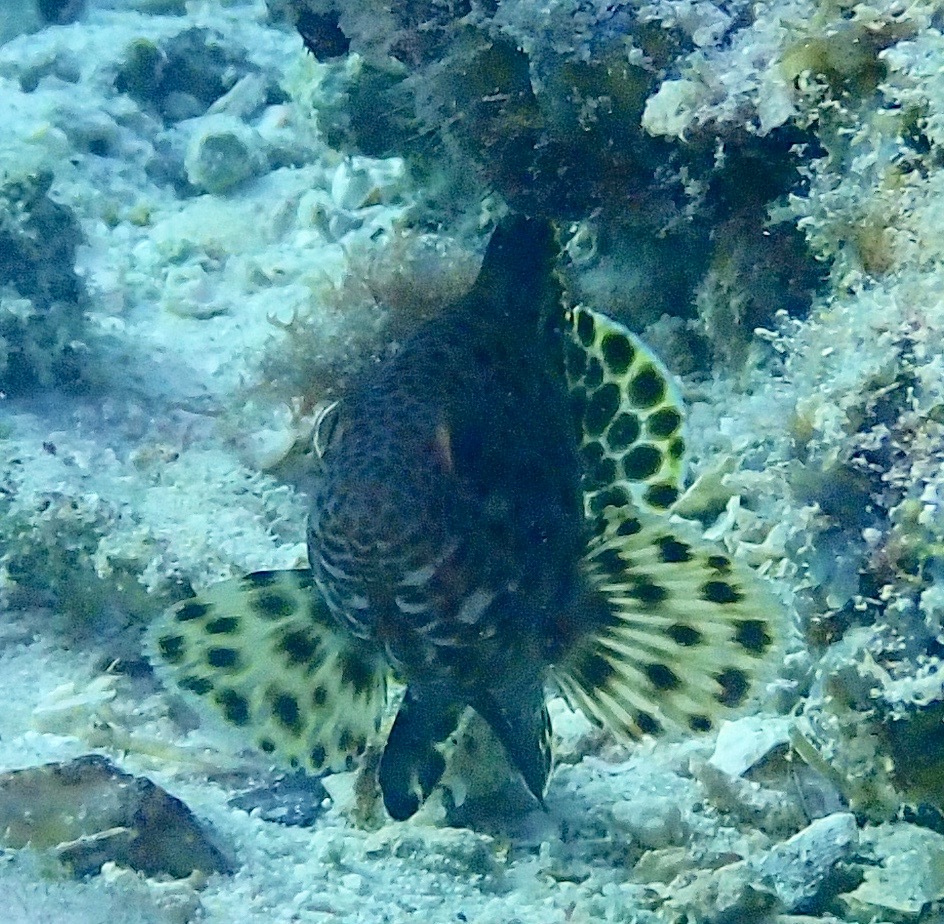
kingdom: Animalia
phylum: Chordata
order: Perciformes
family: Serranidae
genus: Epinephelus
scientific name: Epinephelus maculatus
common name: Highfin grouper
